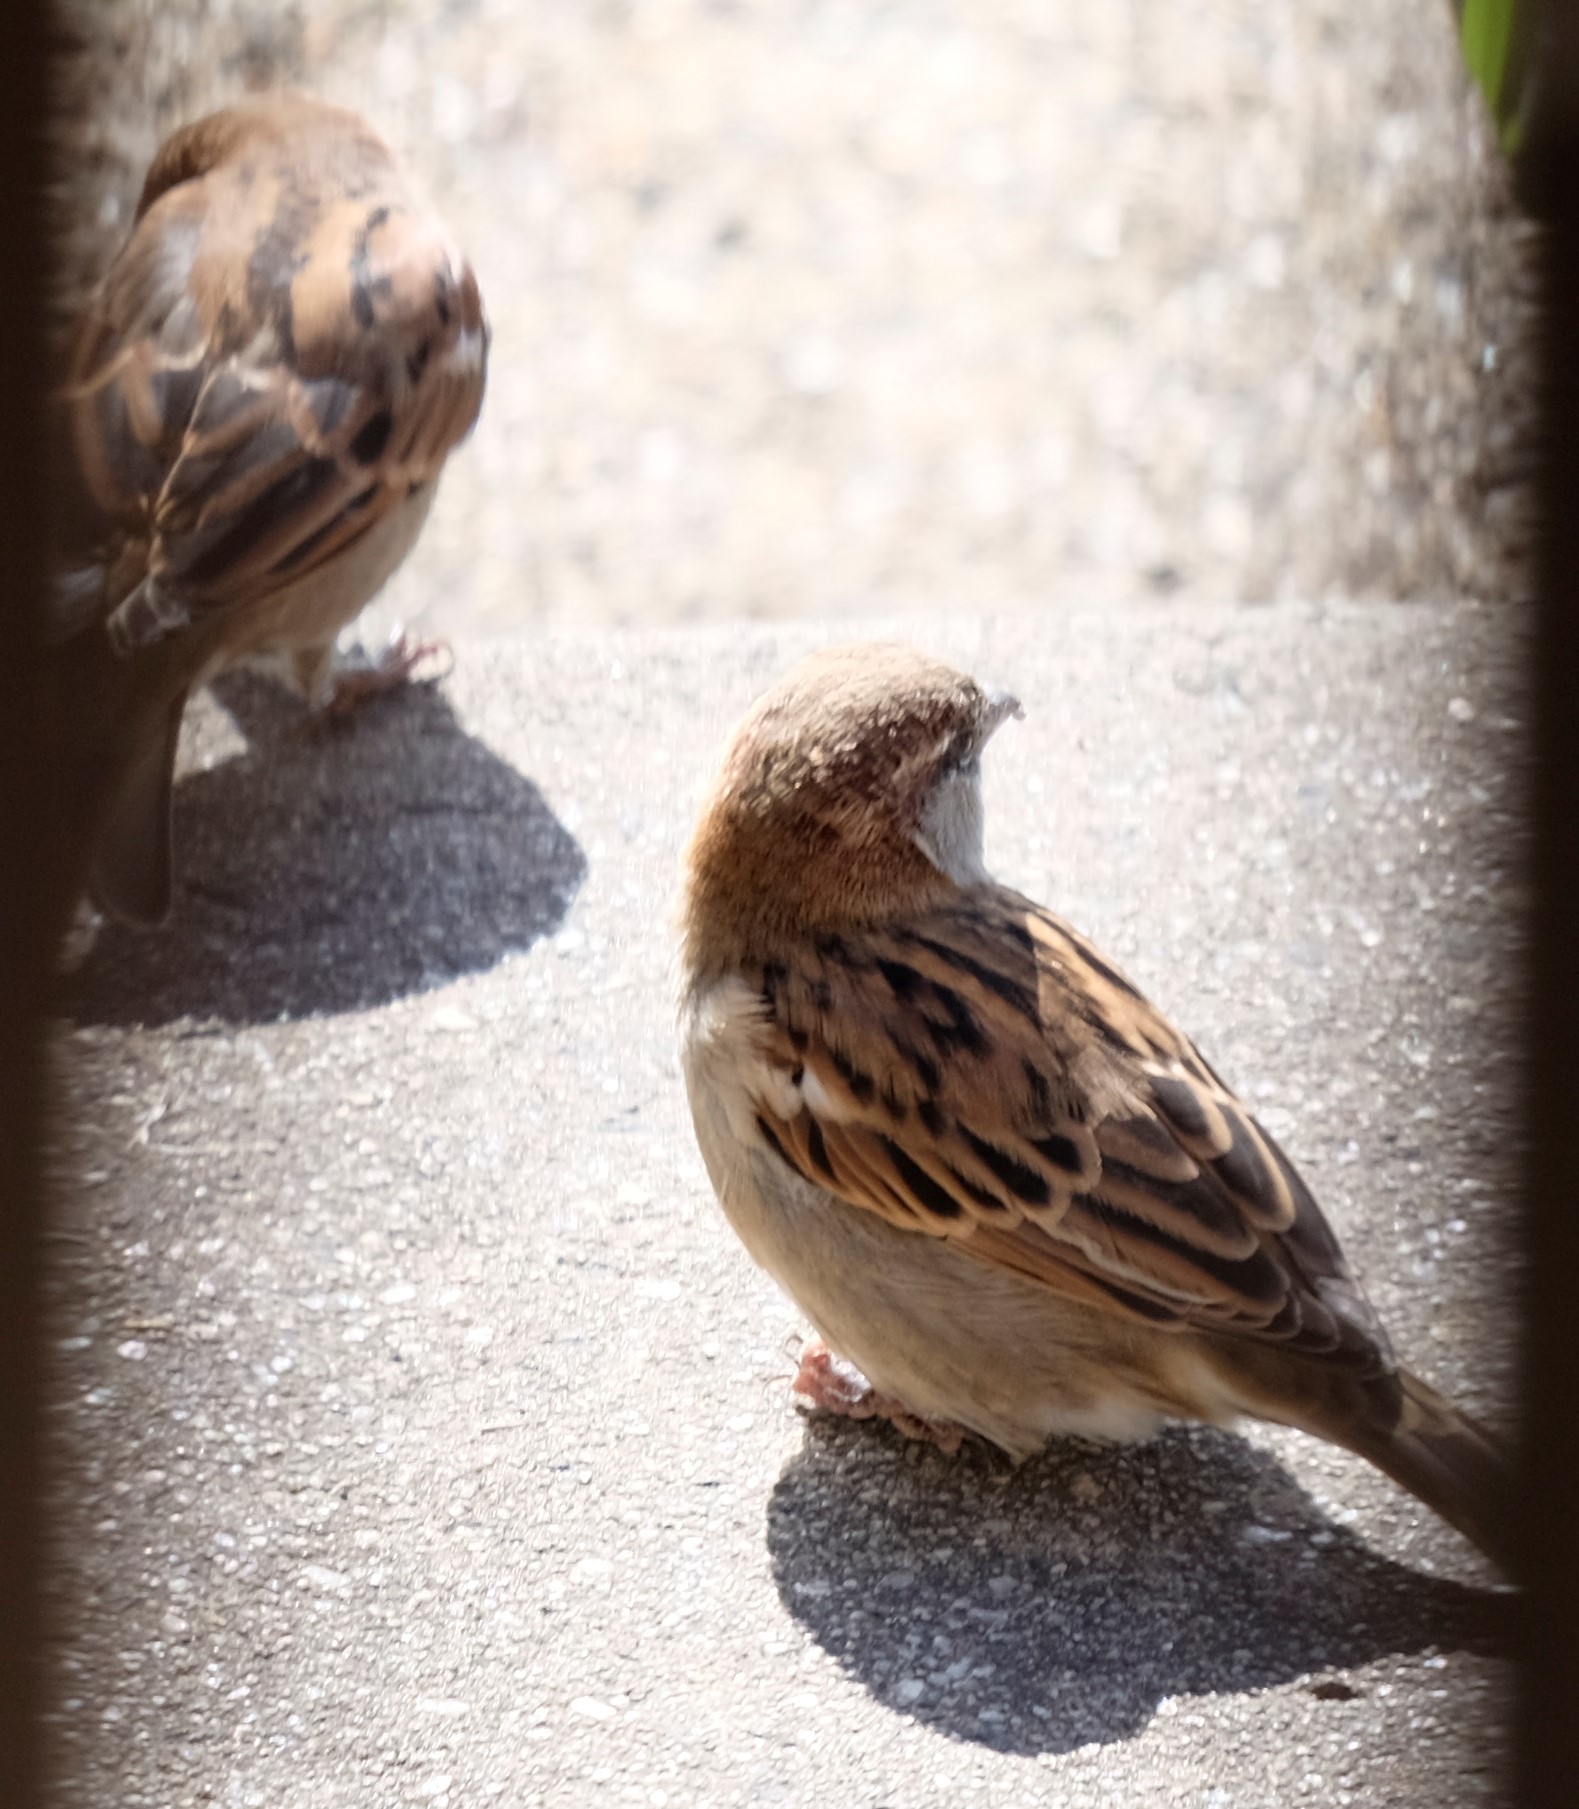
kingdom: Animalia
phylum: Chordata
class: Aves
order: Passeriformes
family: Passeridae
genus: Passer
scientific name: Passer domesticus
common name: House sparrow
